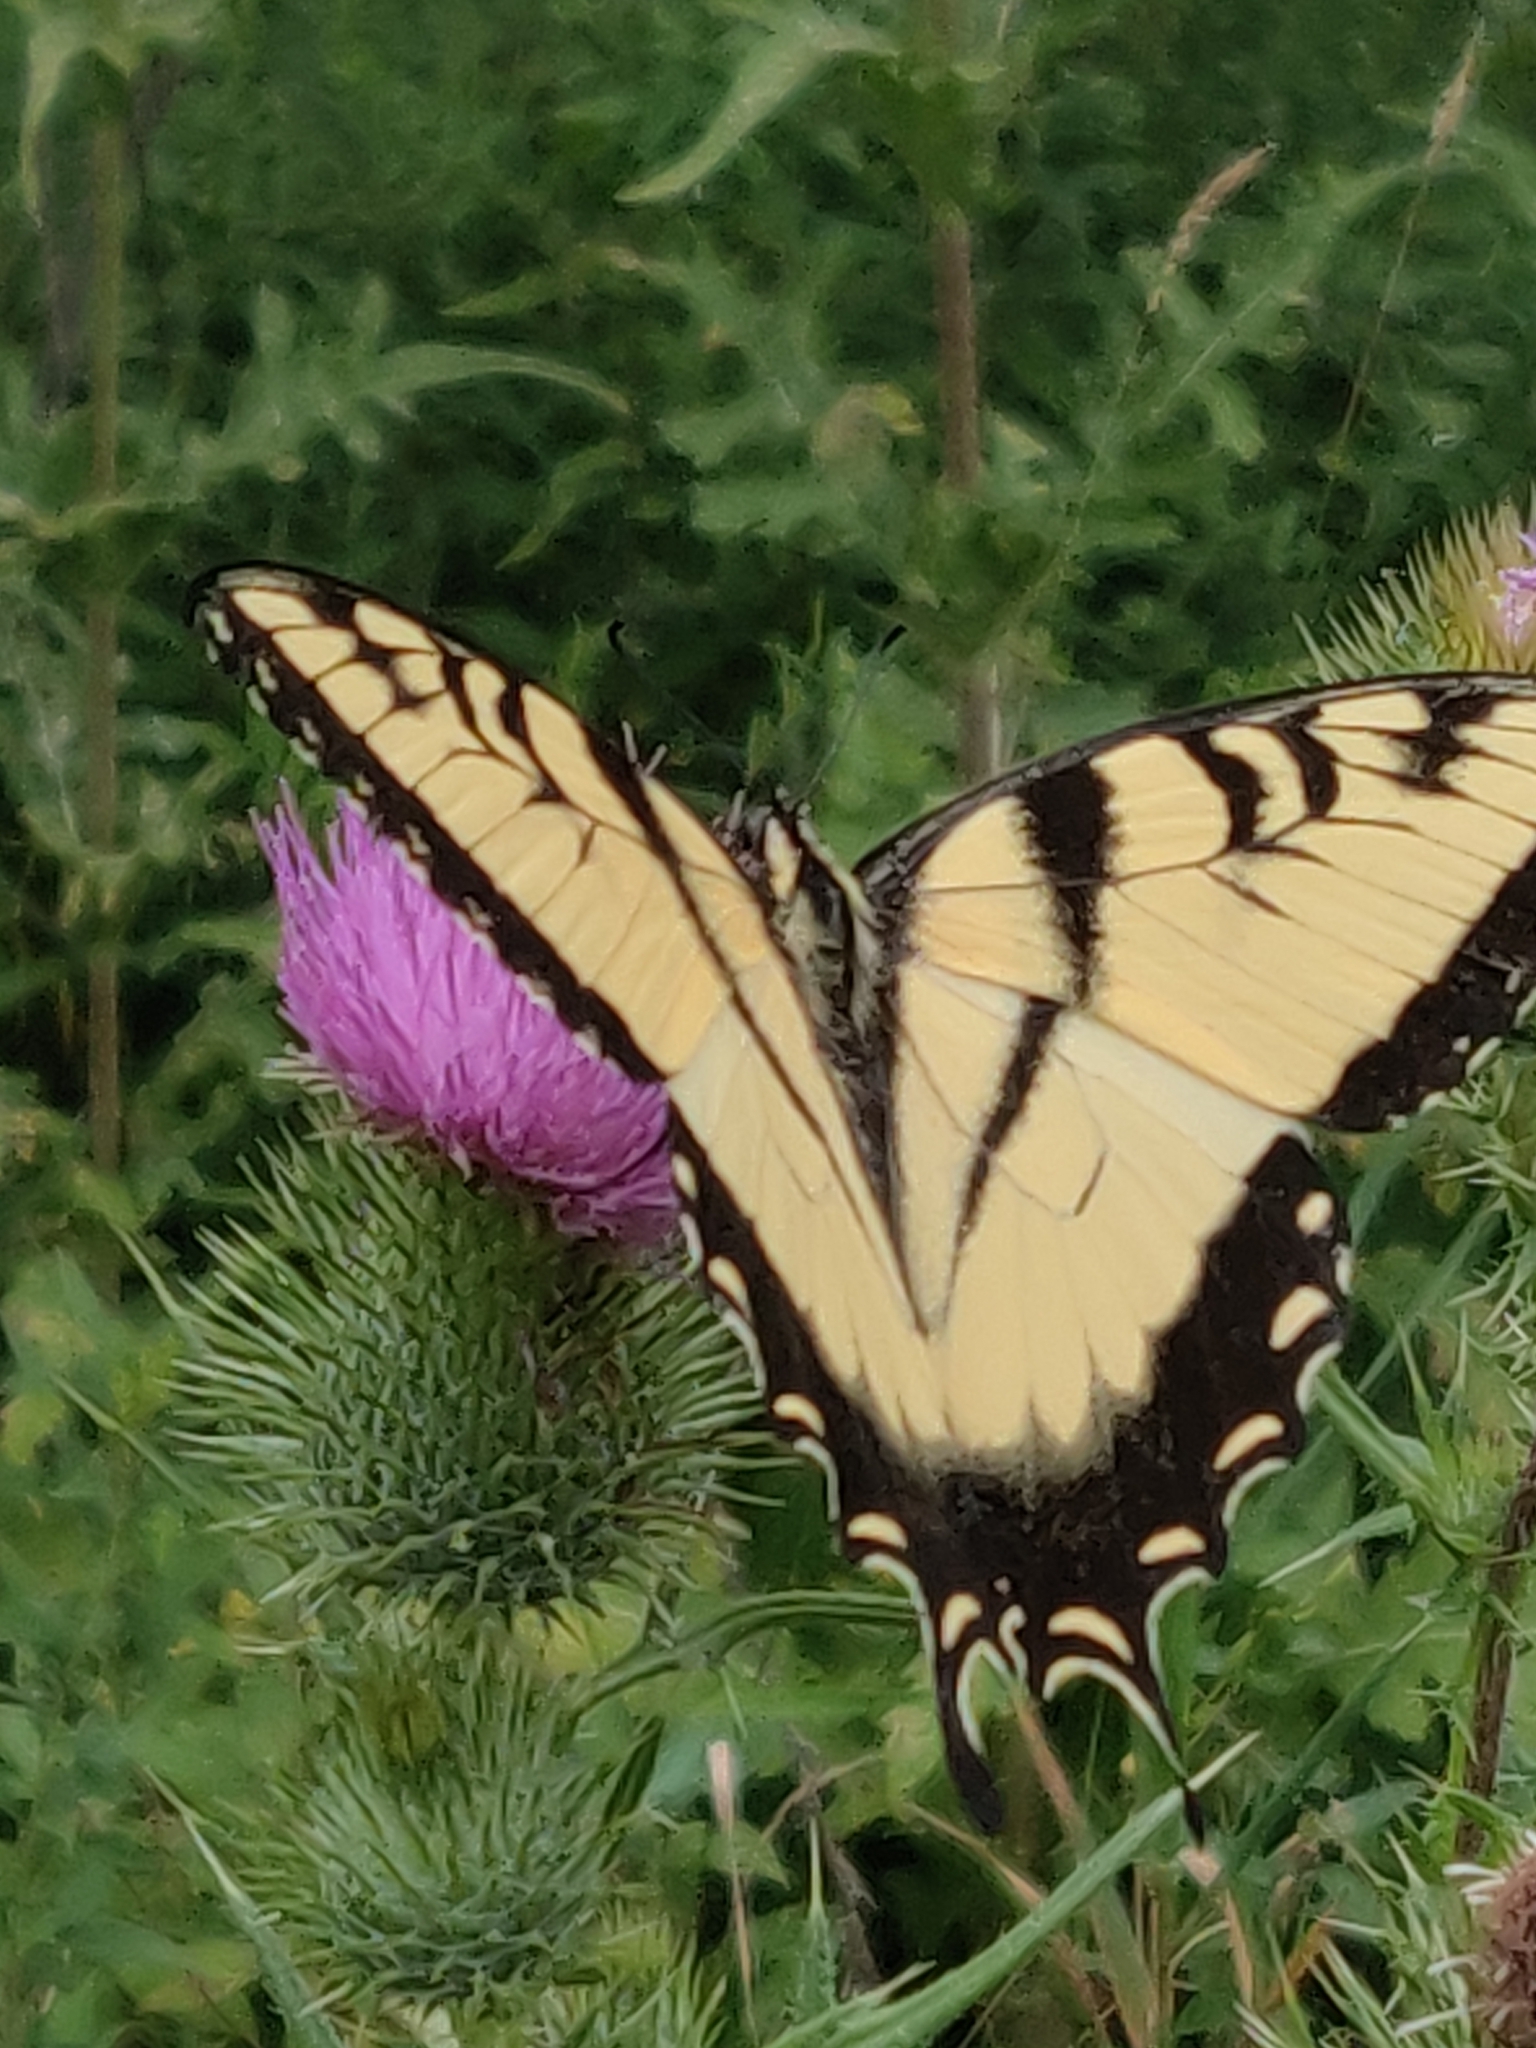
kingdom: Animalia
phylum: Arthropoda
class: Insecta
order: Lepidoptera
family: Papilionidae
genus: Papilio
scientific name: Papilio glaucus
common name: Tiger swallowtail
